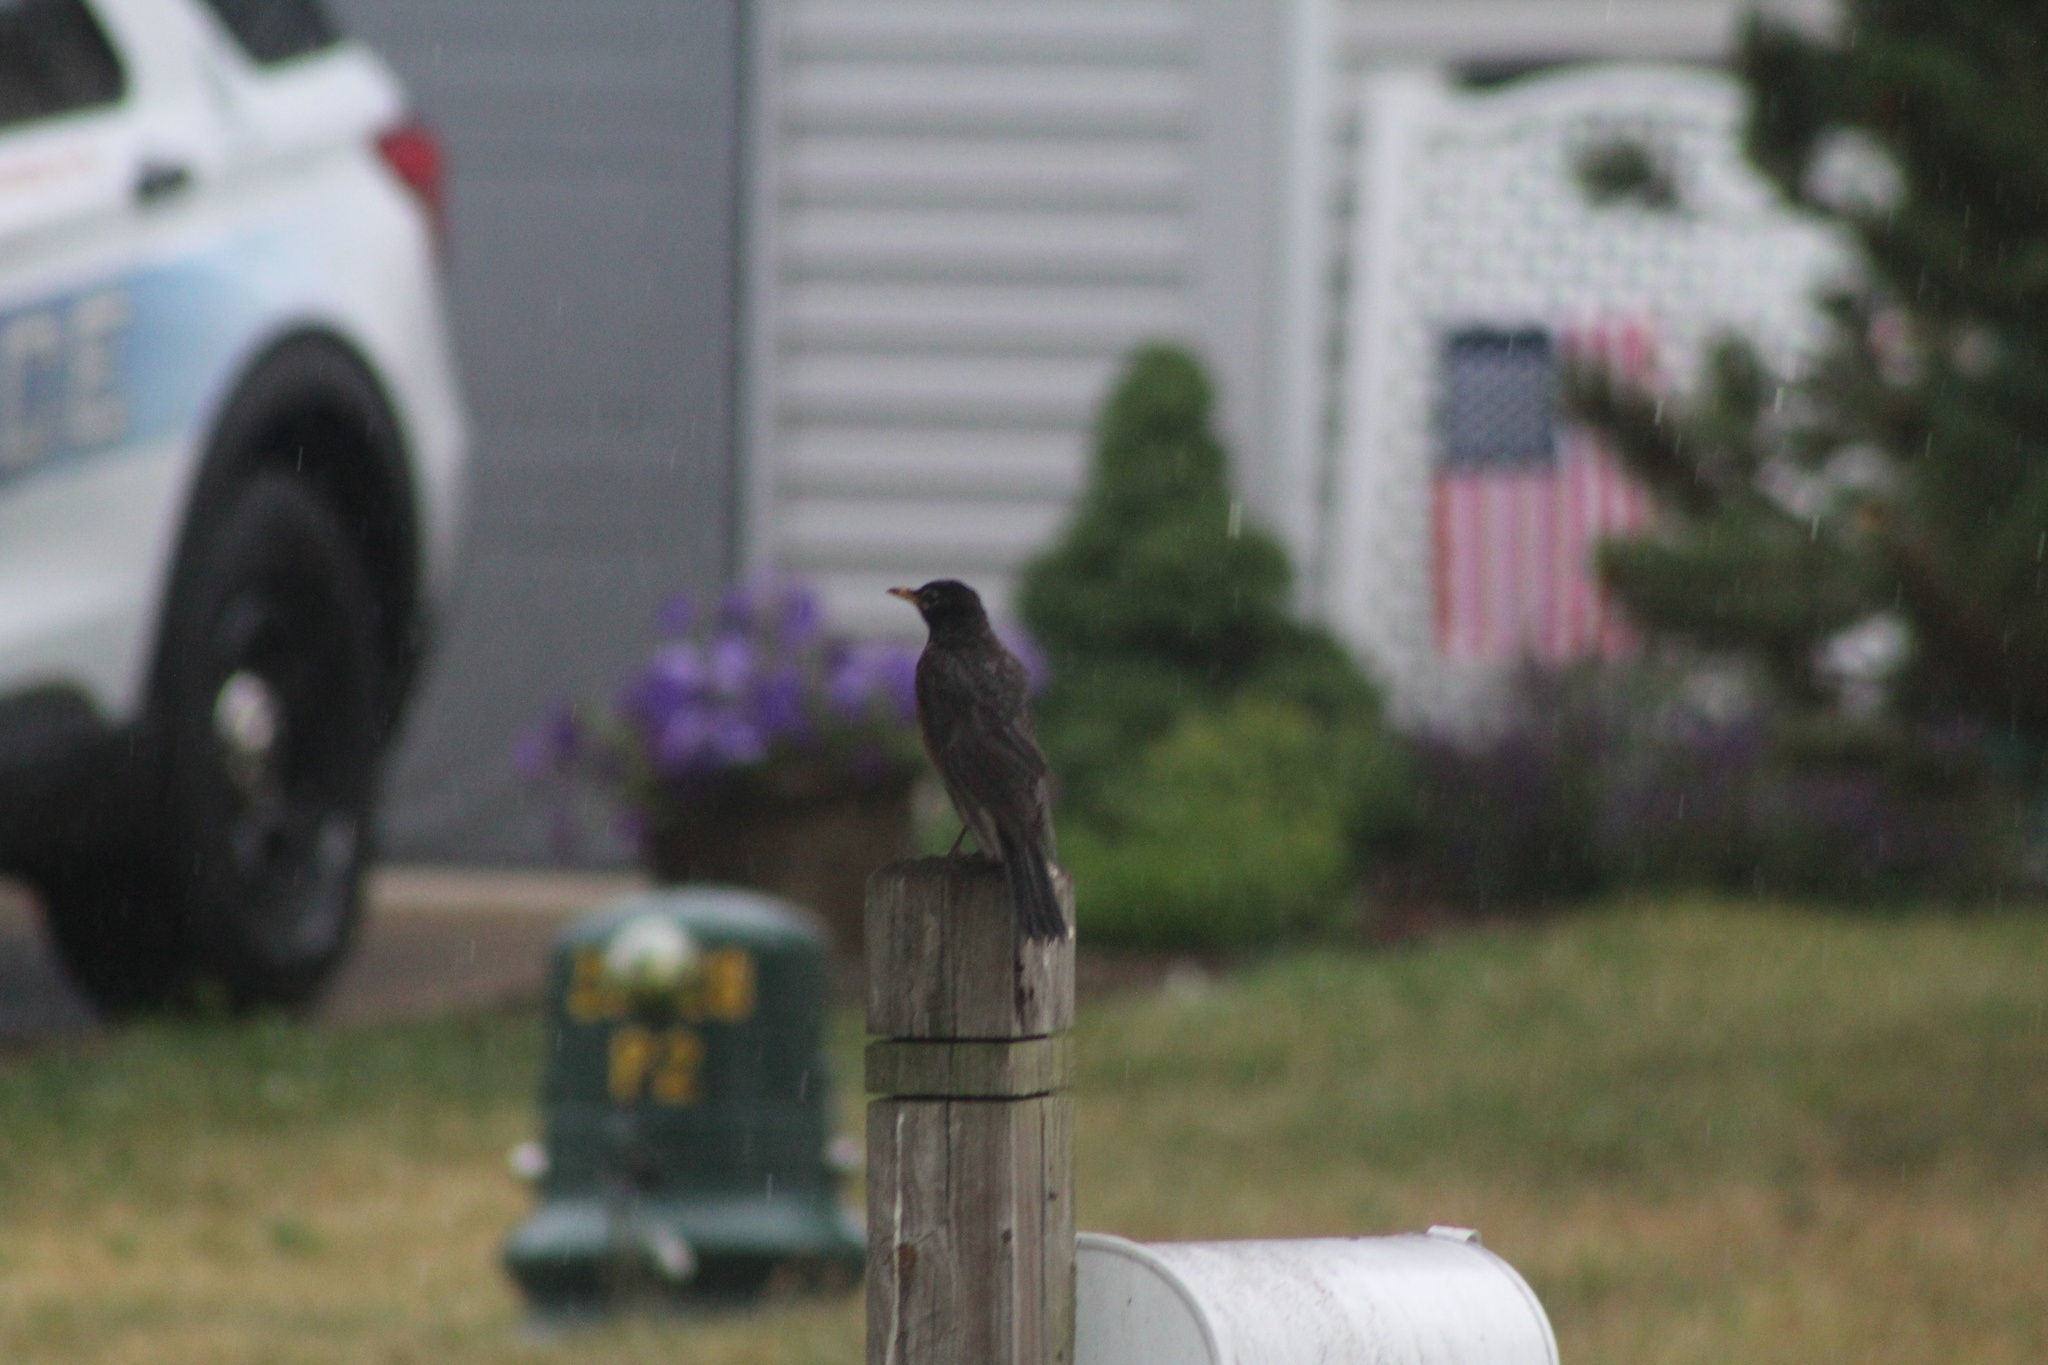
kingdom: Animalia
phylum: Chordata
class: Aves
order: Passeriformes
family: Turdidae
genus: Turdus
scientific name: Turdus migratorius
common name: American robin
